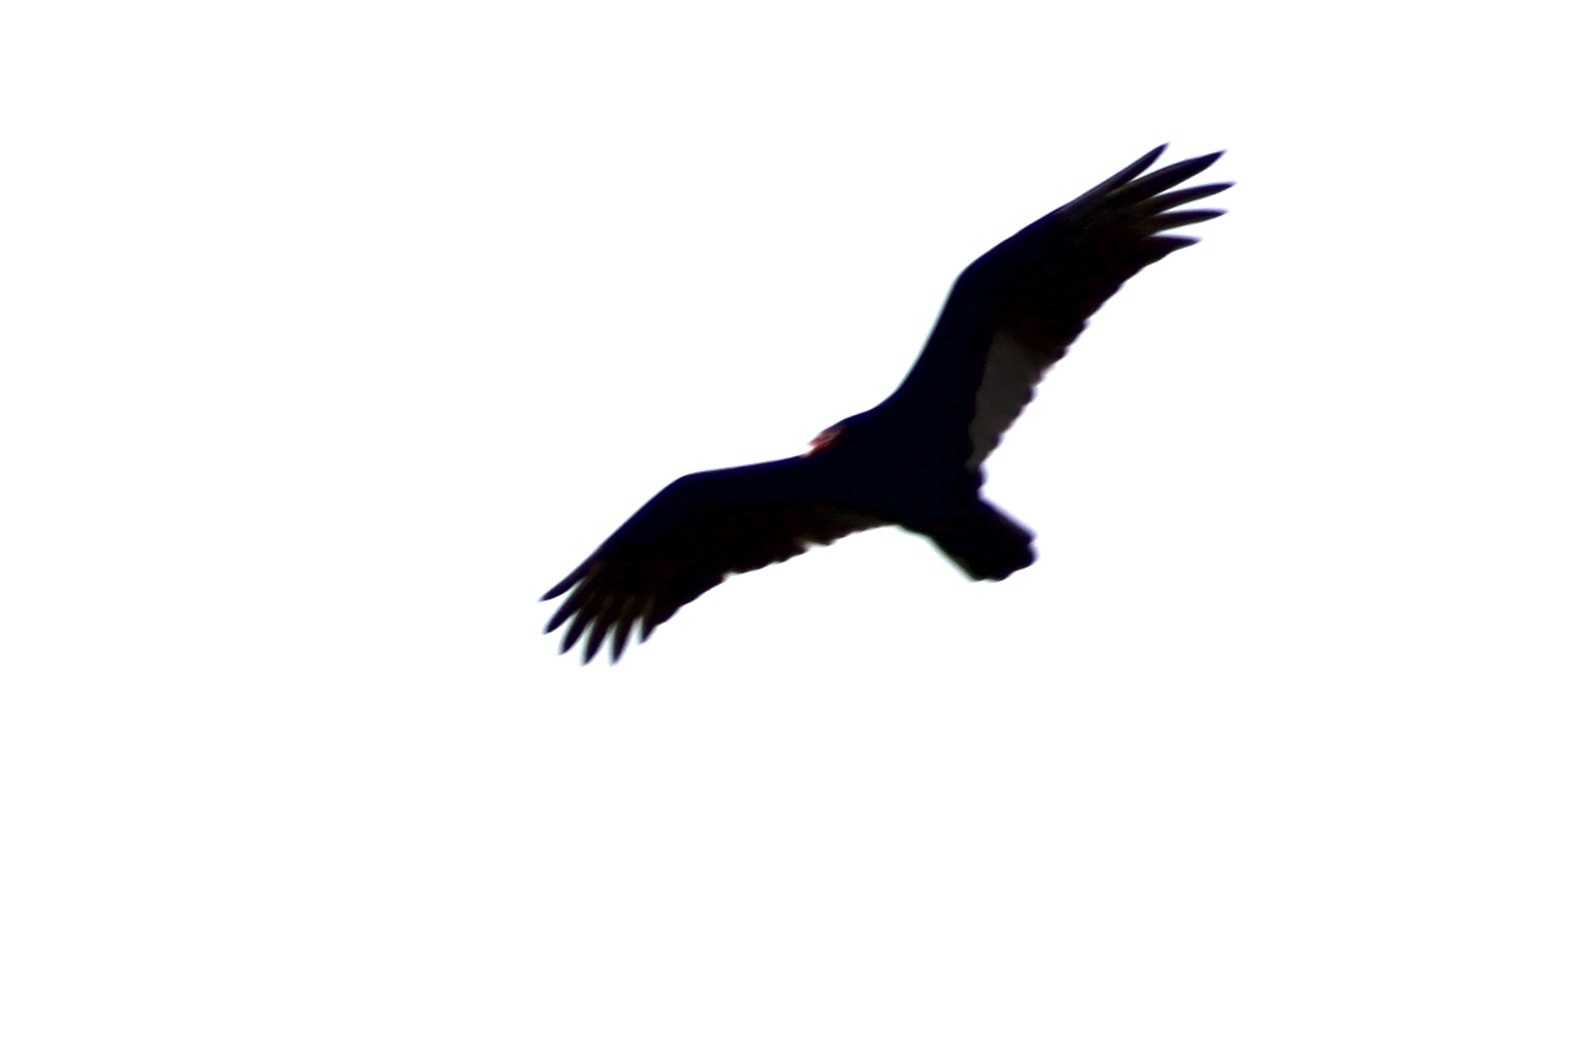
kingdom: Animalia
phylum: Chordata
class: Aves
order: Accipitriformes
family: Cathartidae
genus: Cathartes
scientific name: Cathartes aura
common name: Turkey vulture
